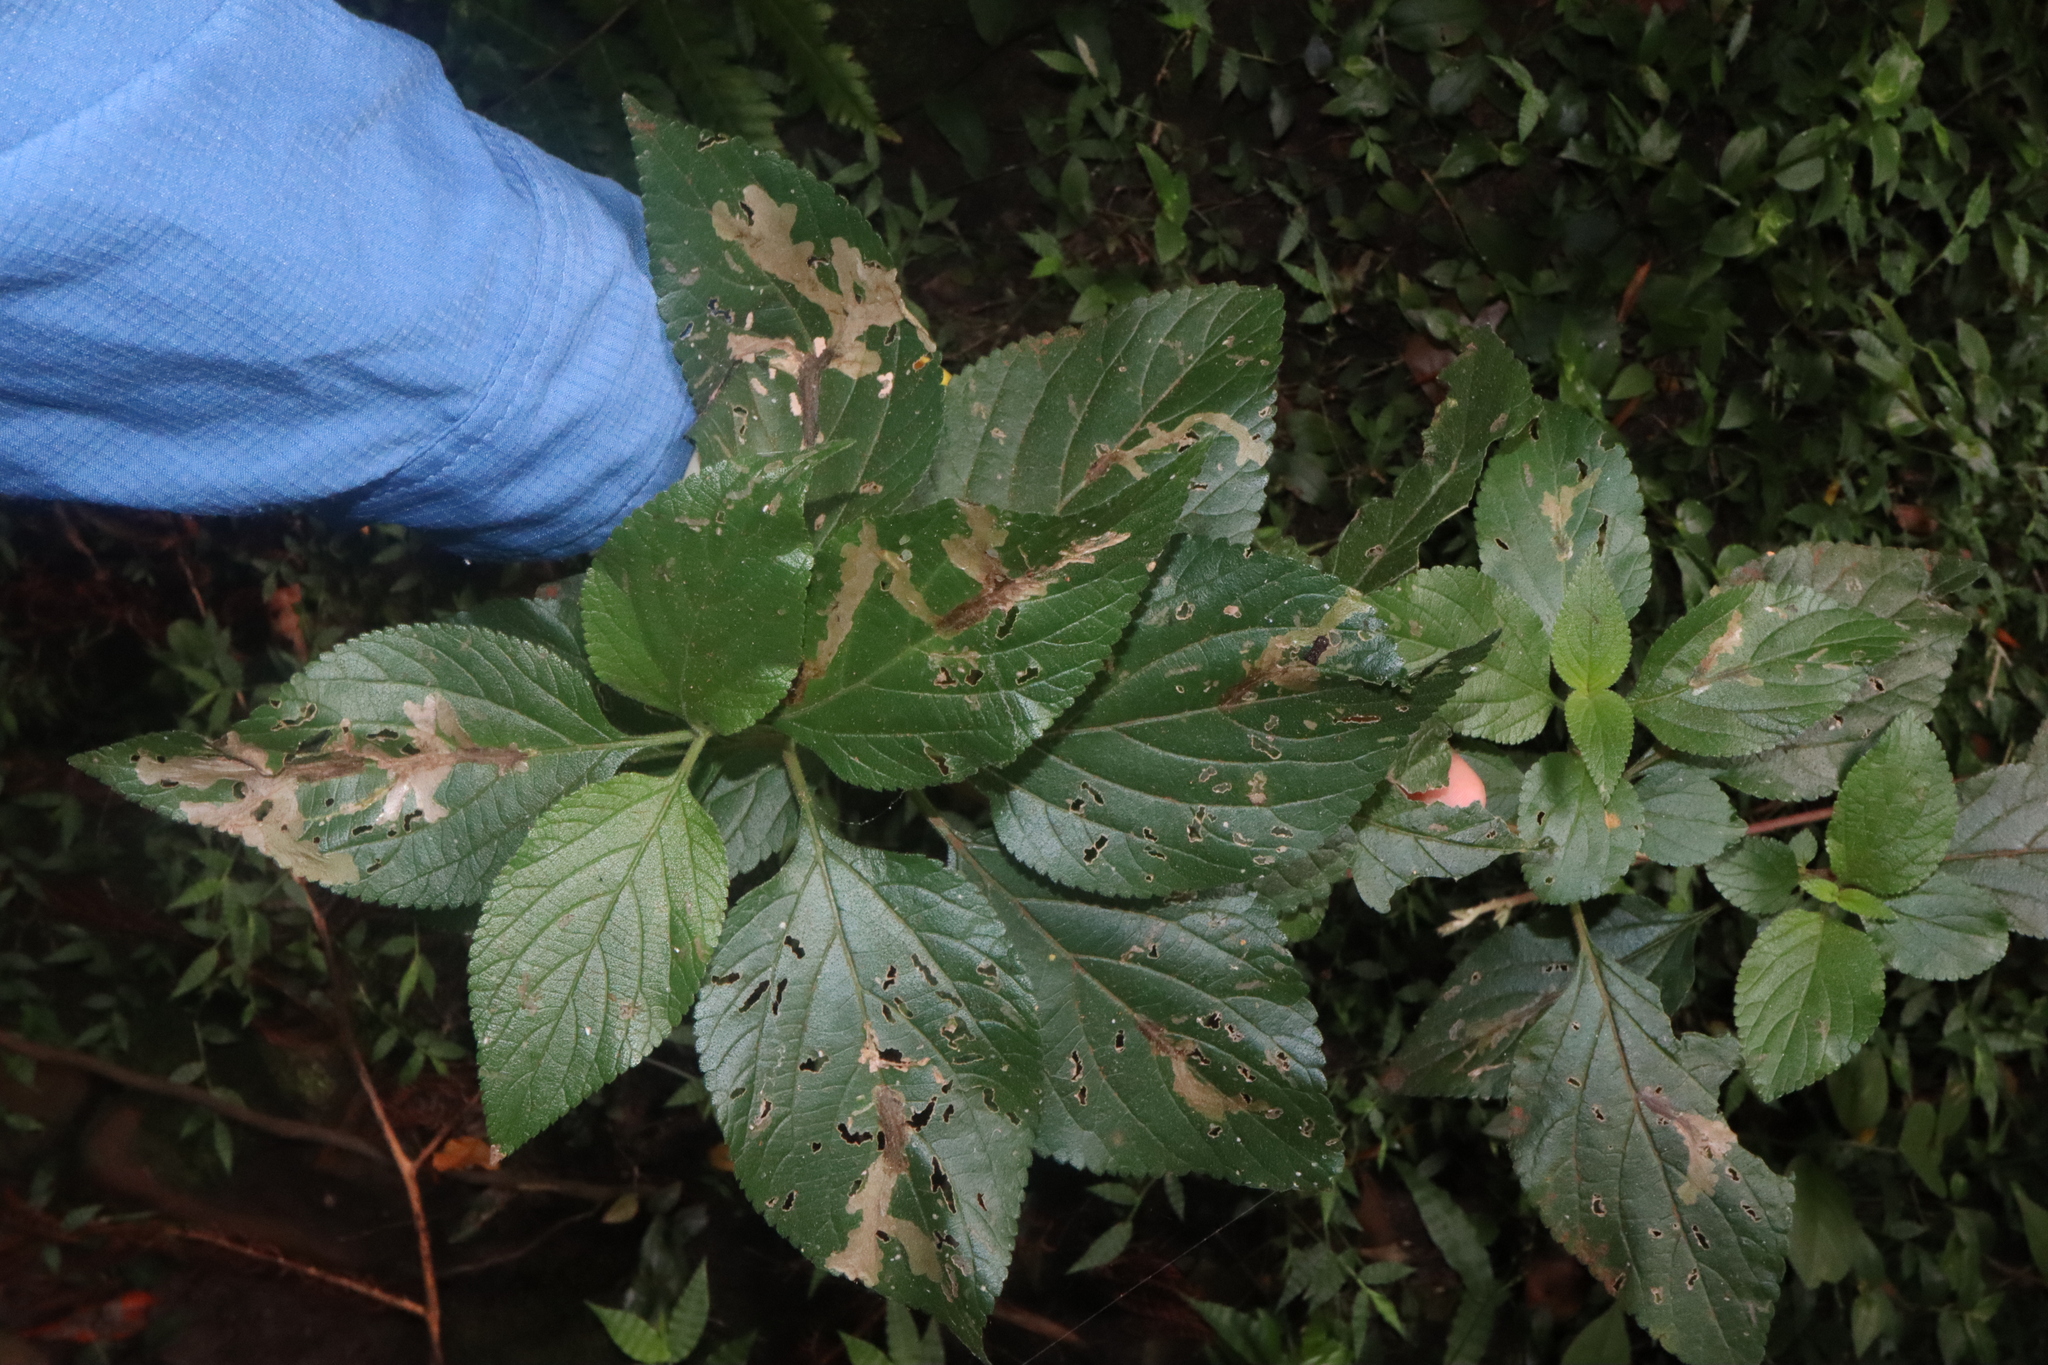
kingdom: Plantae
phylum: Tracheophyta
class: Magnoliopsida
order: Lamiales
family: Verbenaceae
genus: Lantana
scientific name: Lantana camara
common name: Lantana
